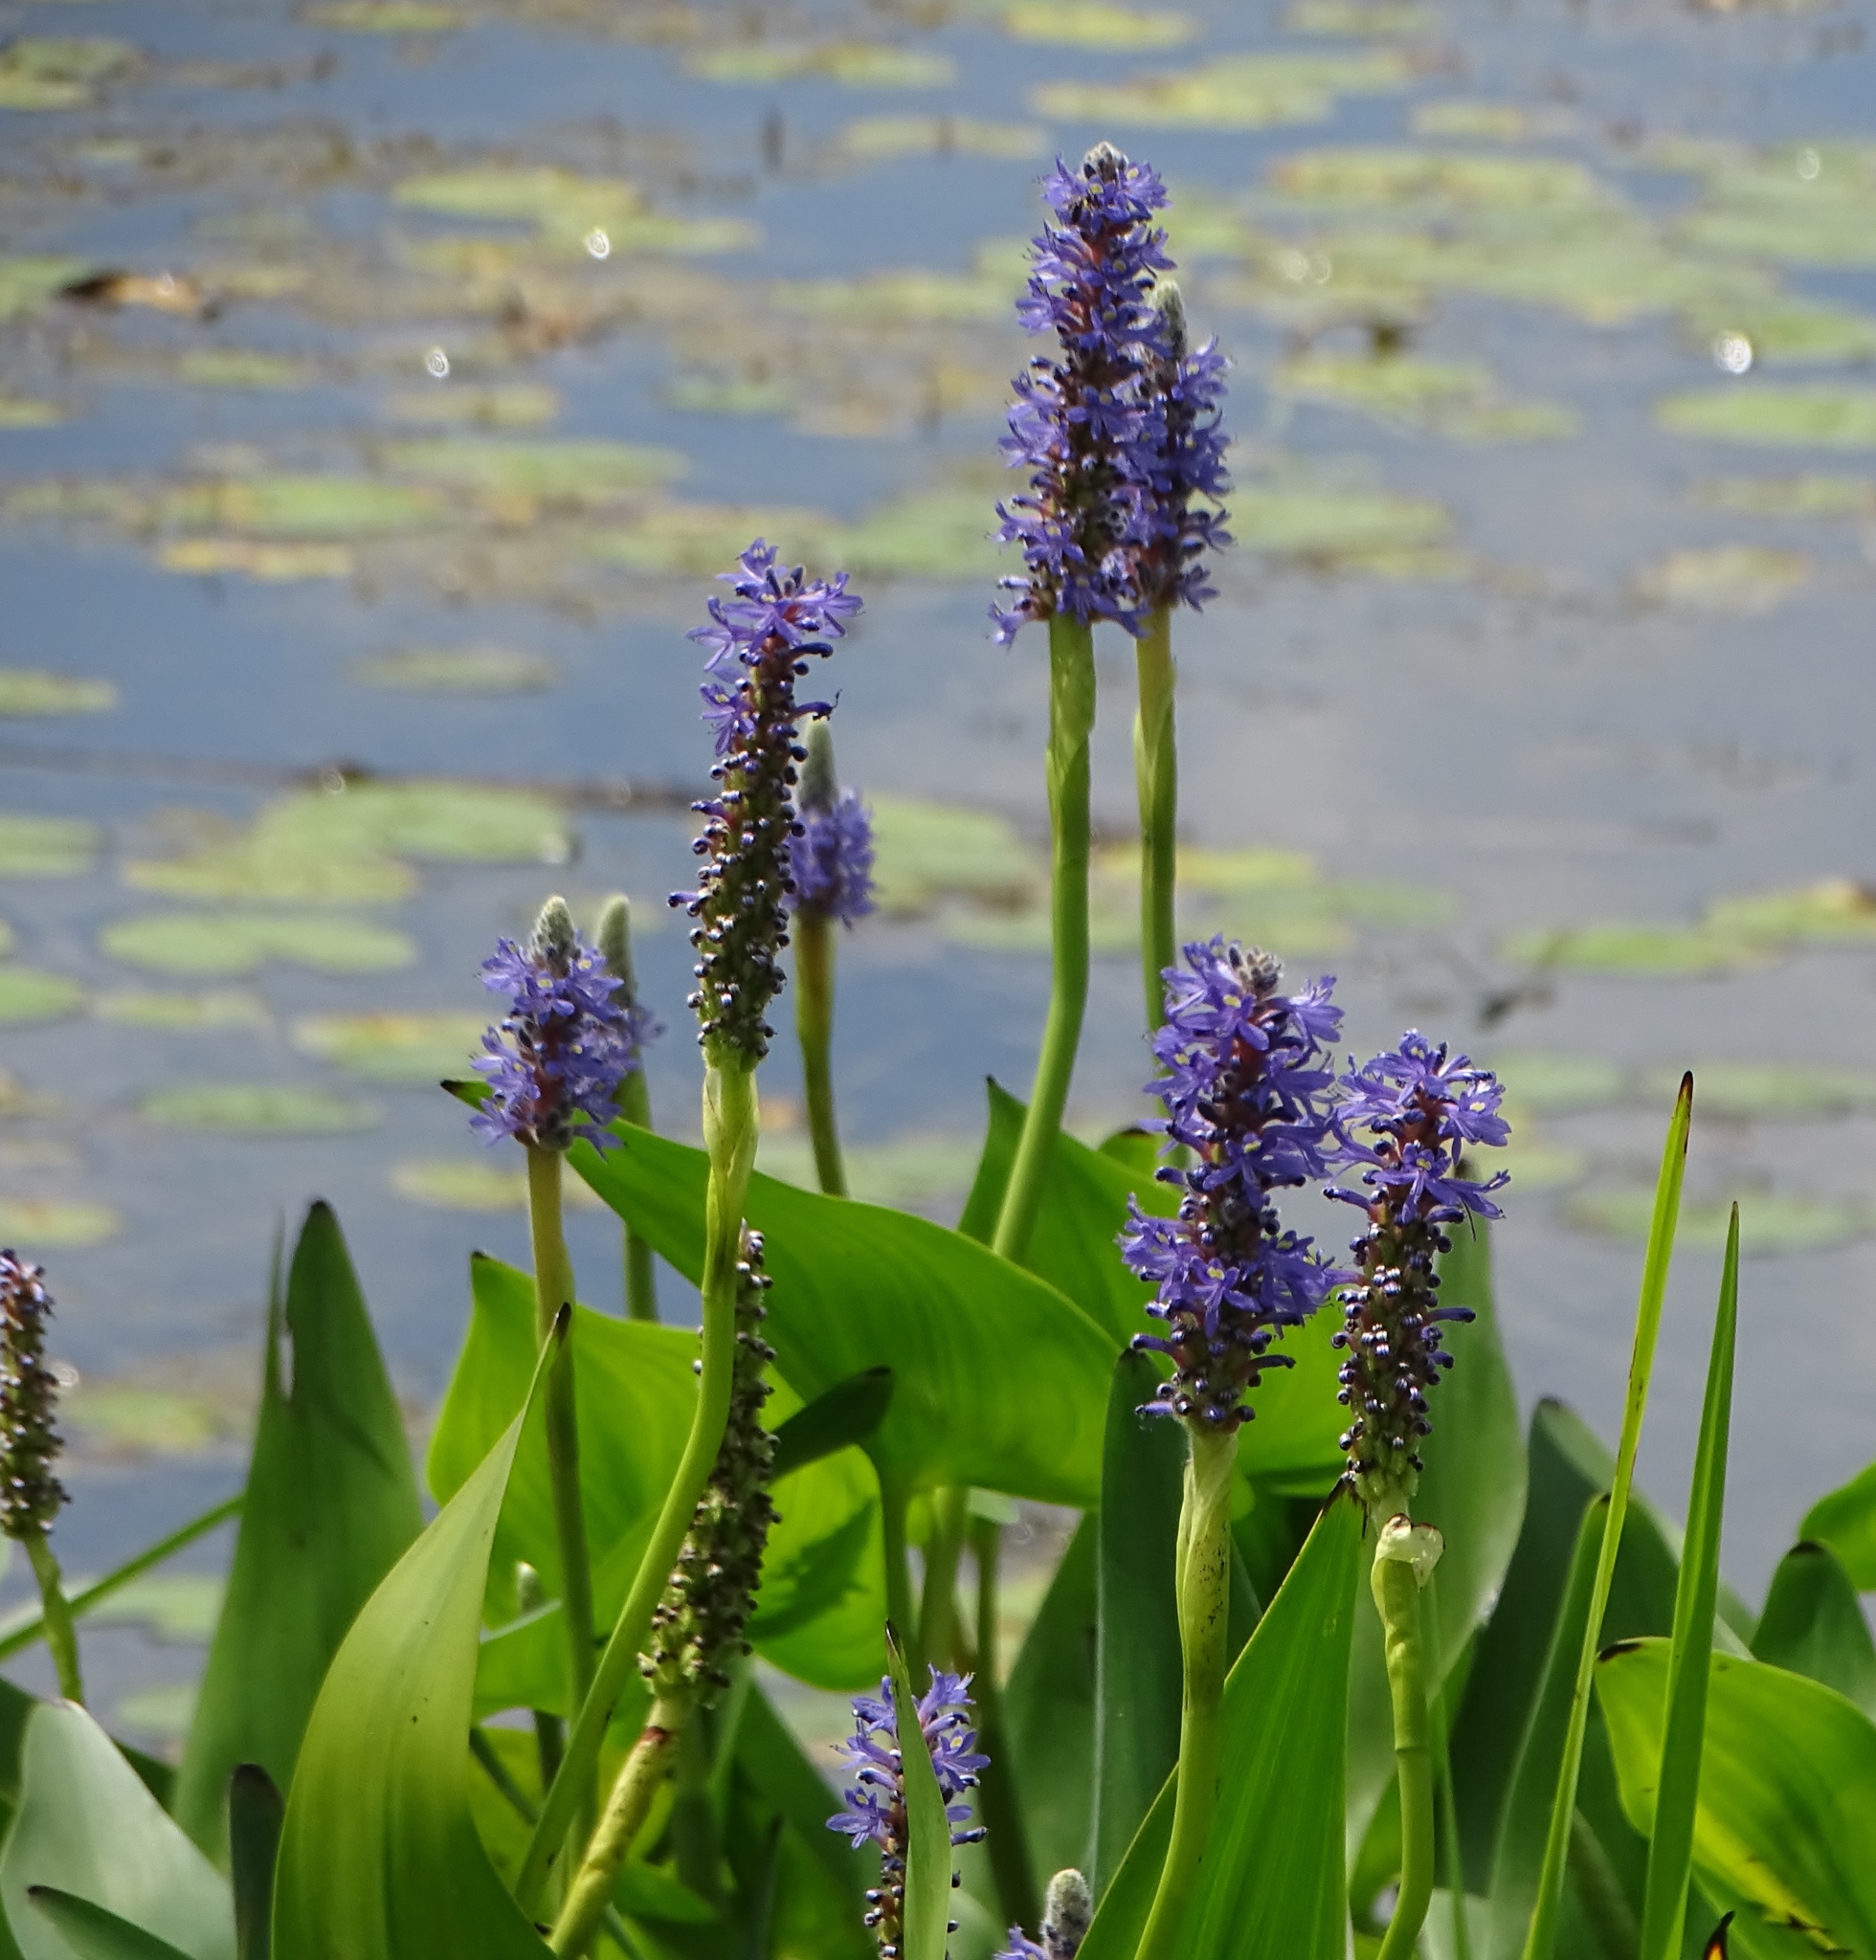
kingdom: Plantae
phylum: Tracheophyta
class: Liliopsida
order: Commelinales
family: Pontederiaceae
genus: Pontederia
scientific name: Pontederia cordata
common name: Pickerelweed
